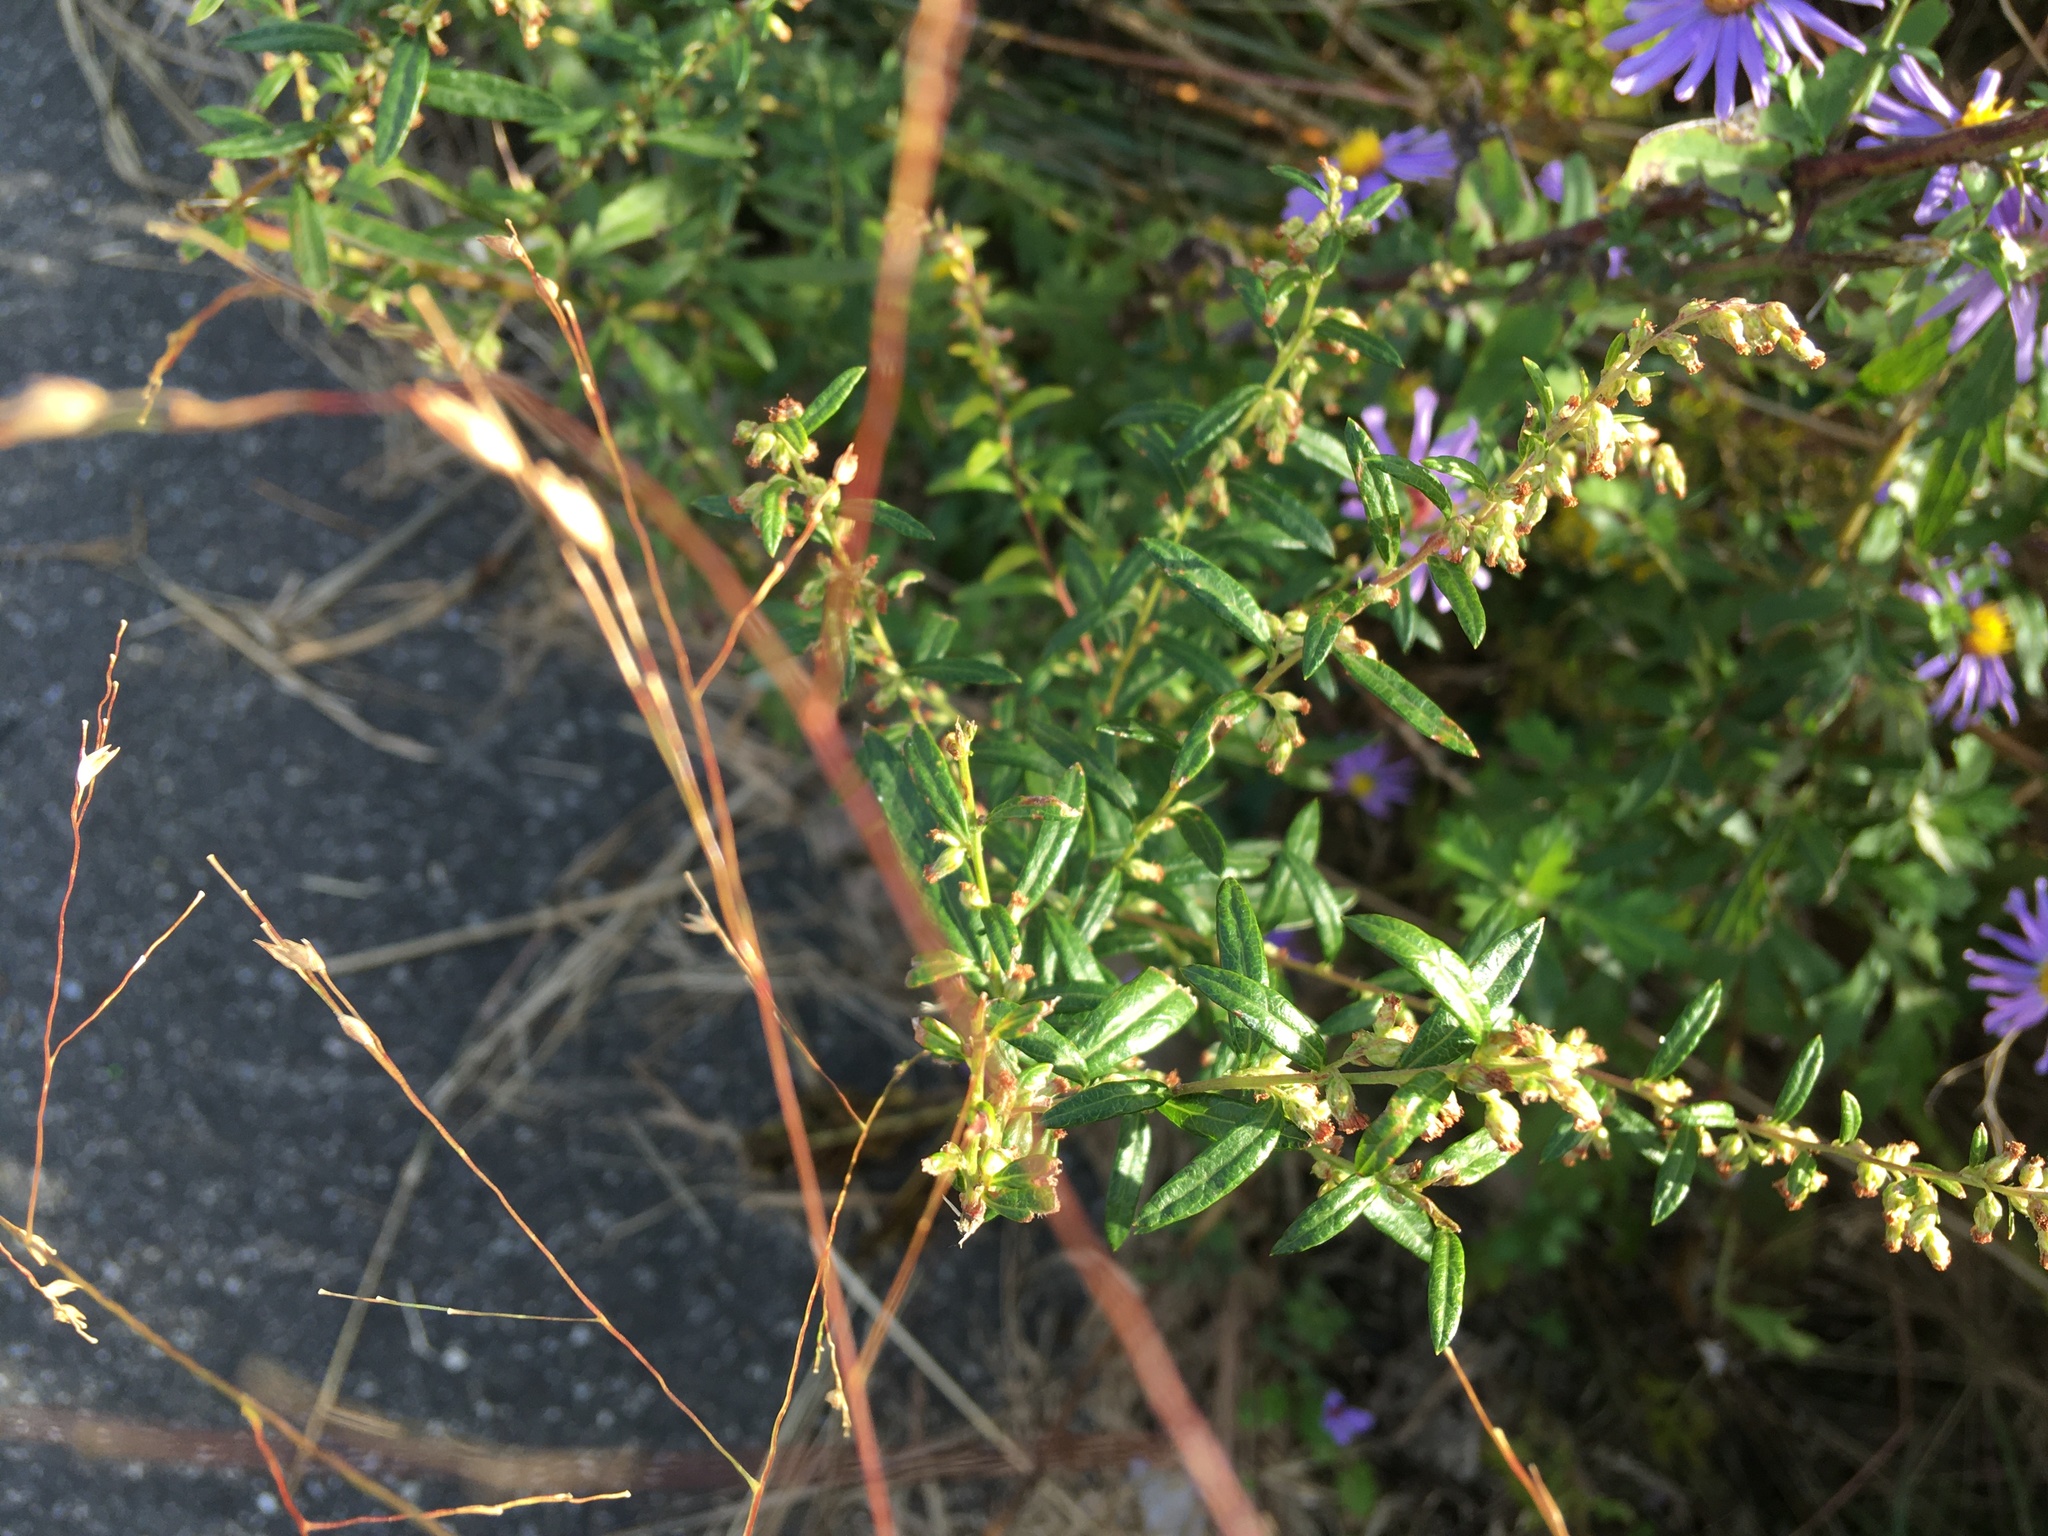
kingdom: Plantae
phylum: Tracheophyta
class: Magnoliopsida
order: Asterales
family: Asteraceae
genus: Artemisia
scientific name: Artemisia vulgaris
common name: Mugwort
